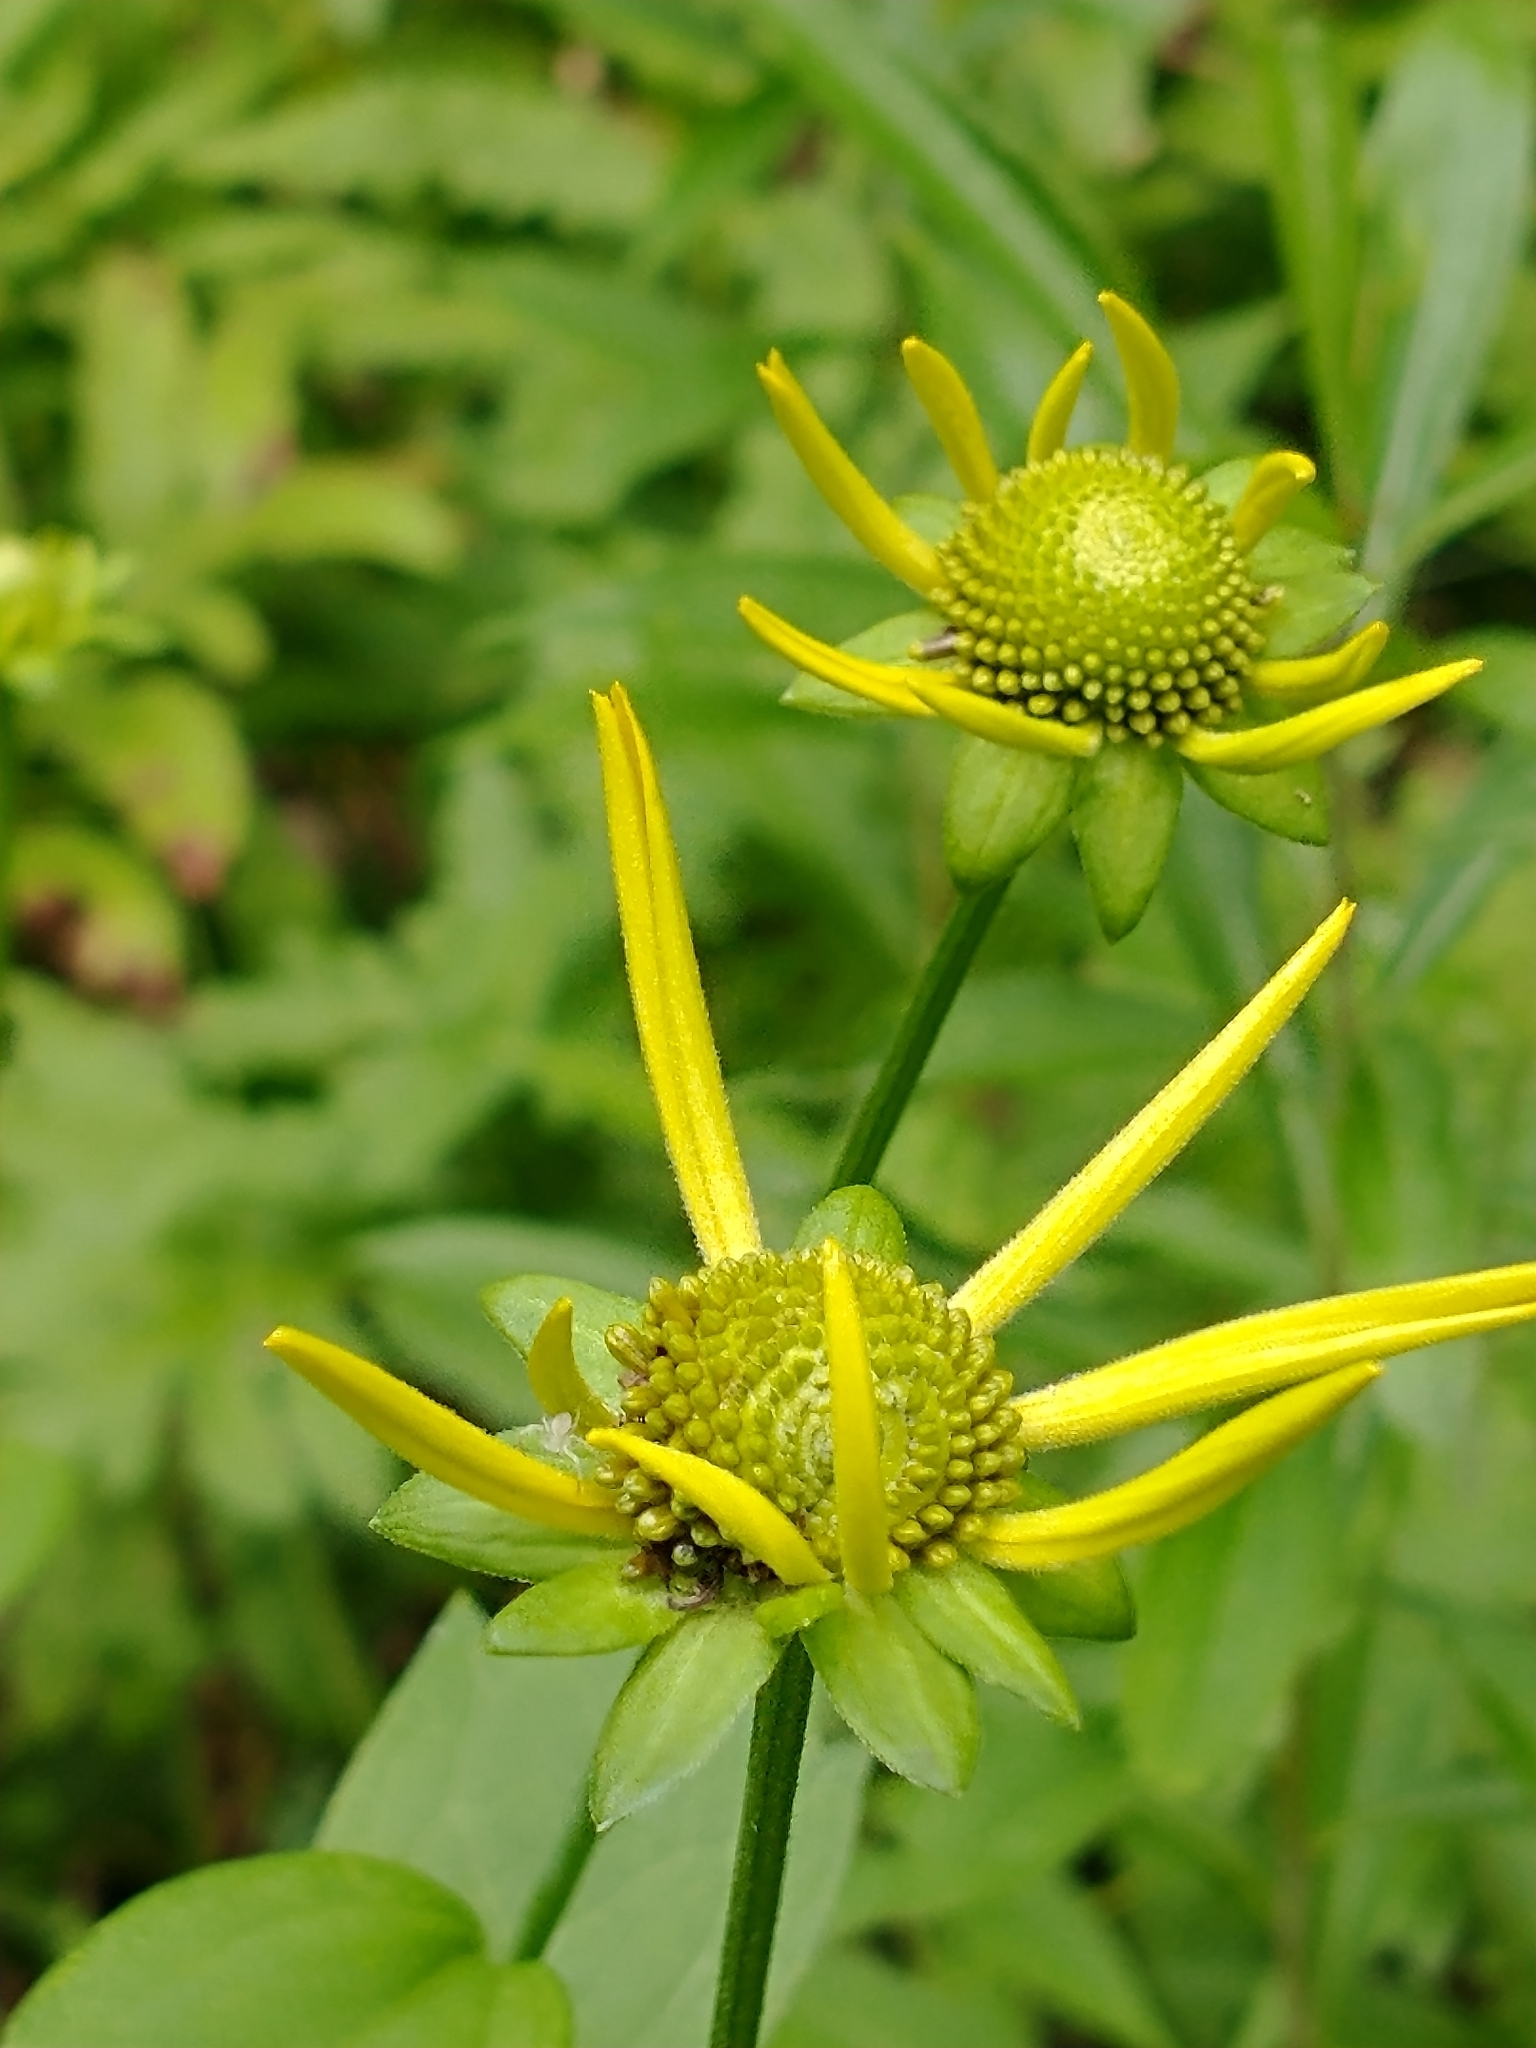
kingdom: Plantae
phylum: Tracheophyta
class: Magnoliopsida
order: Asterales
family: Asteraceae
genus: Rudbeckia
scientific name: Rudbeckia laciniata
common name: Coneflower
